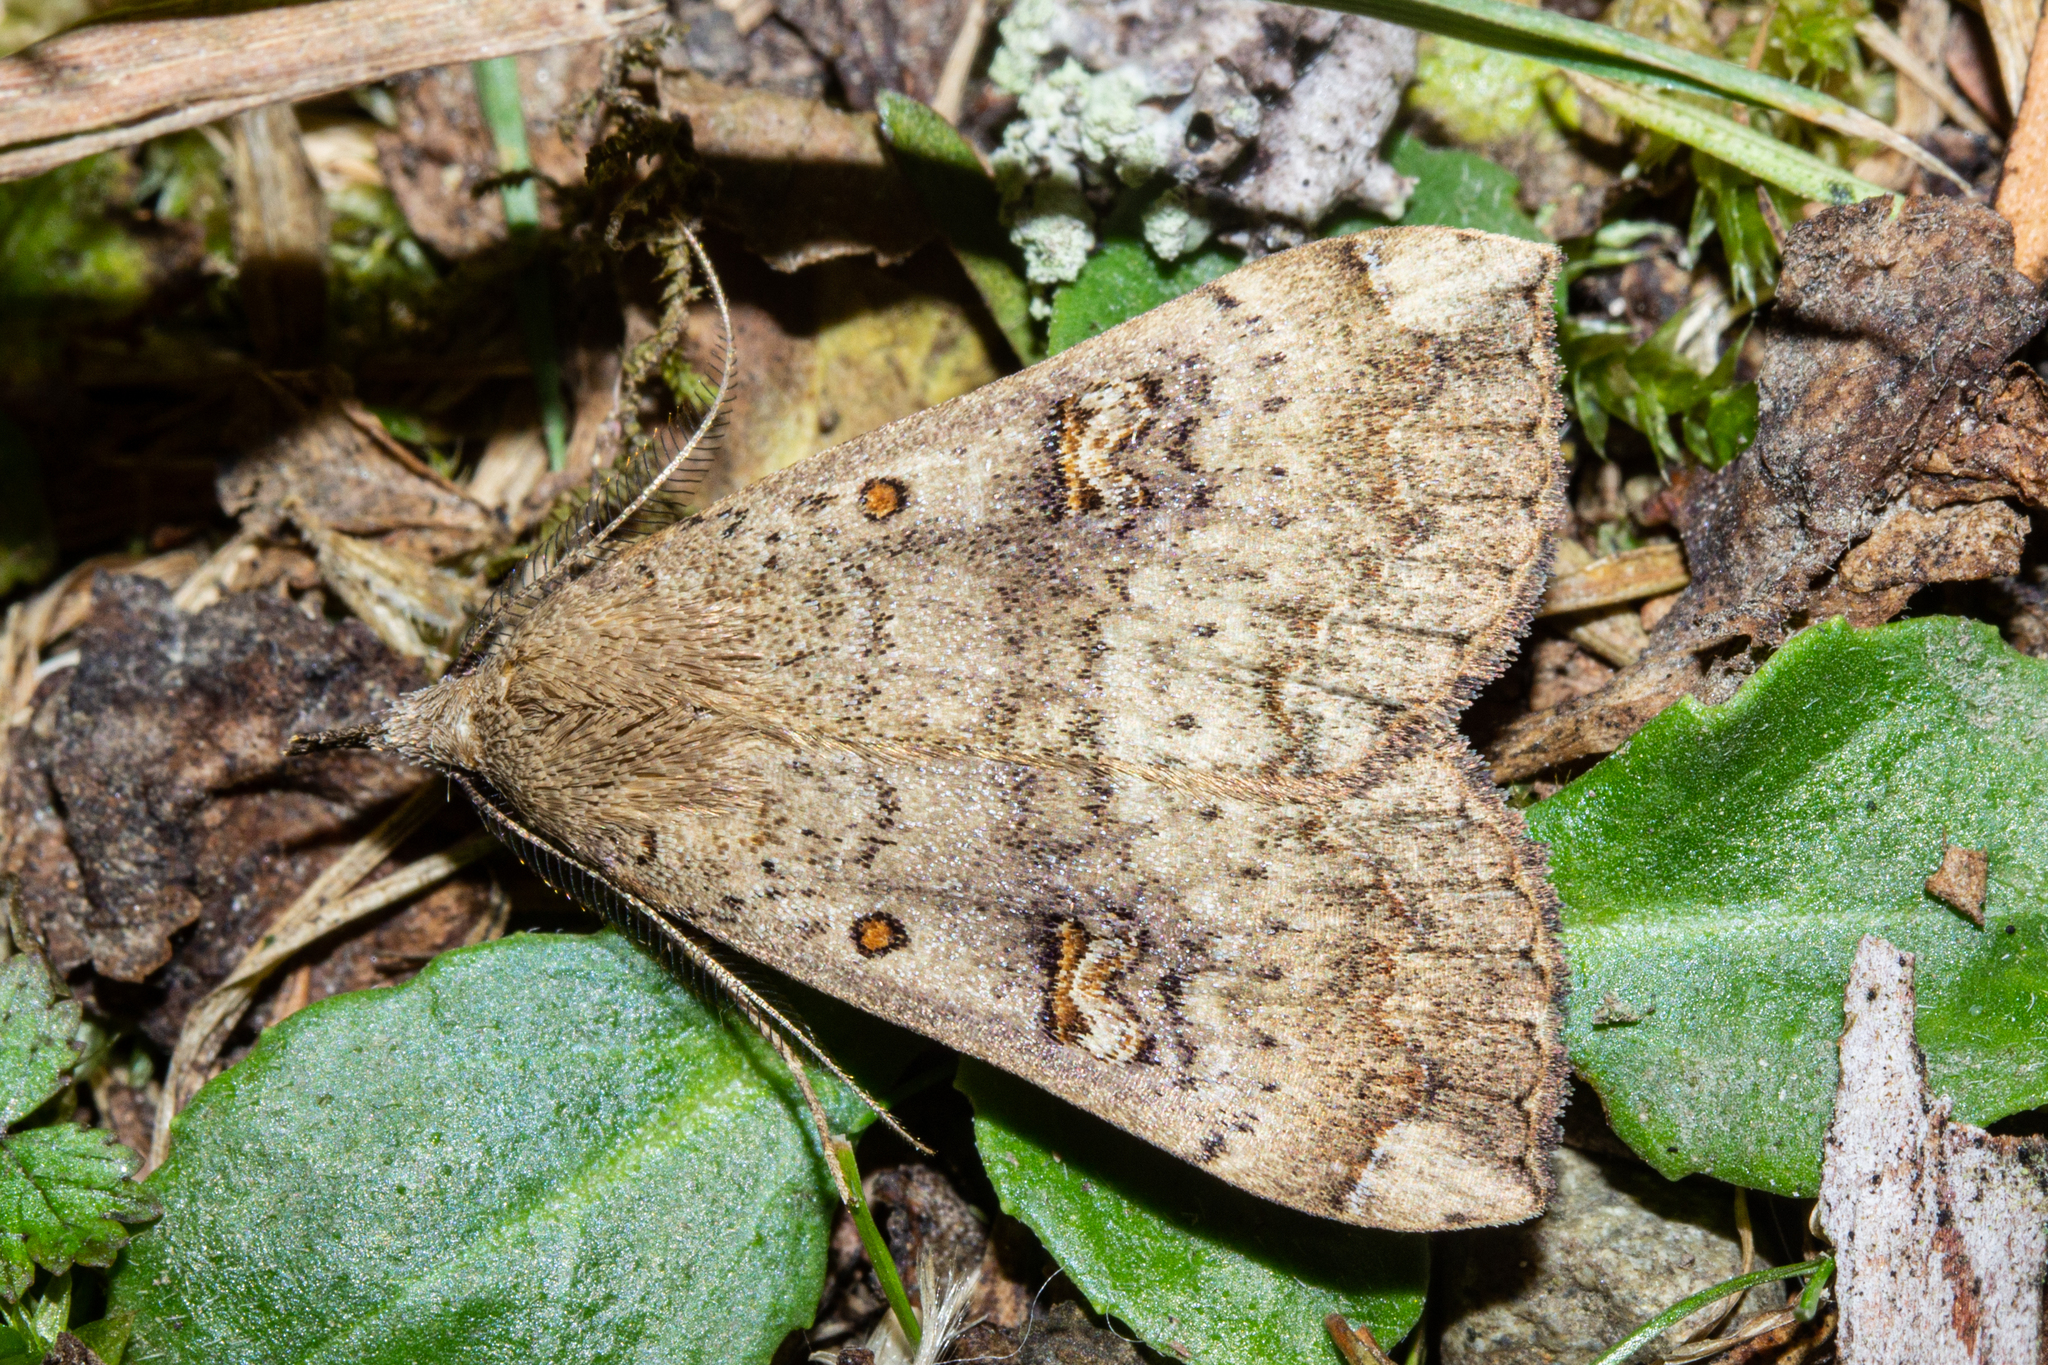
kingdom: Animalia
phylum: Arthropoda
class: Insecta
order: Lepidoptera
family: Erebidae
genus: Rhapsa
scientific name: Rhapsa scotosialis
